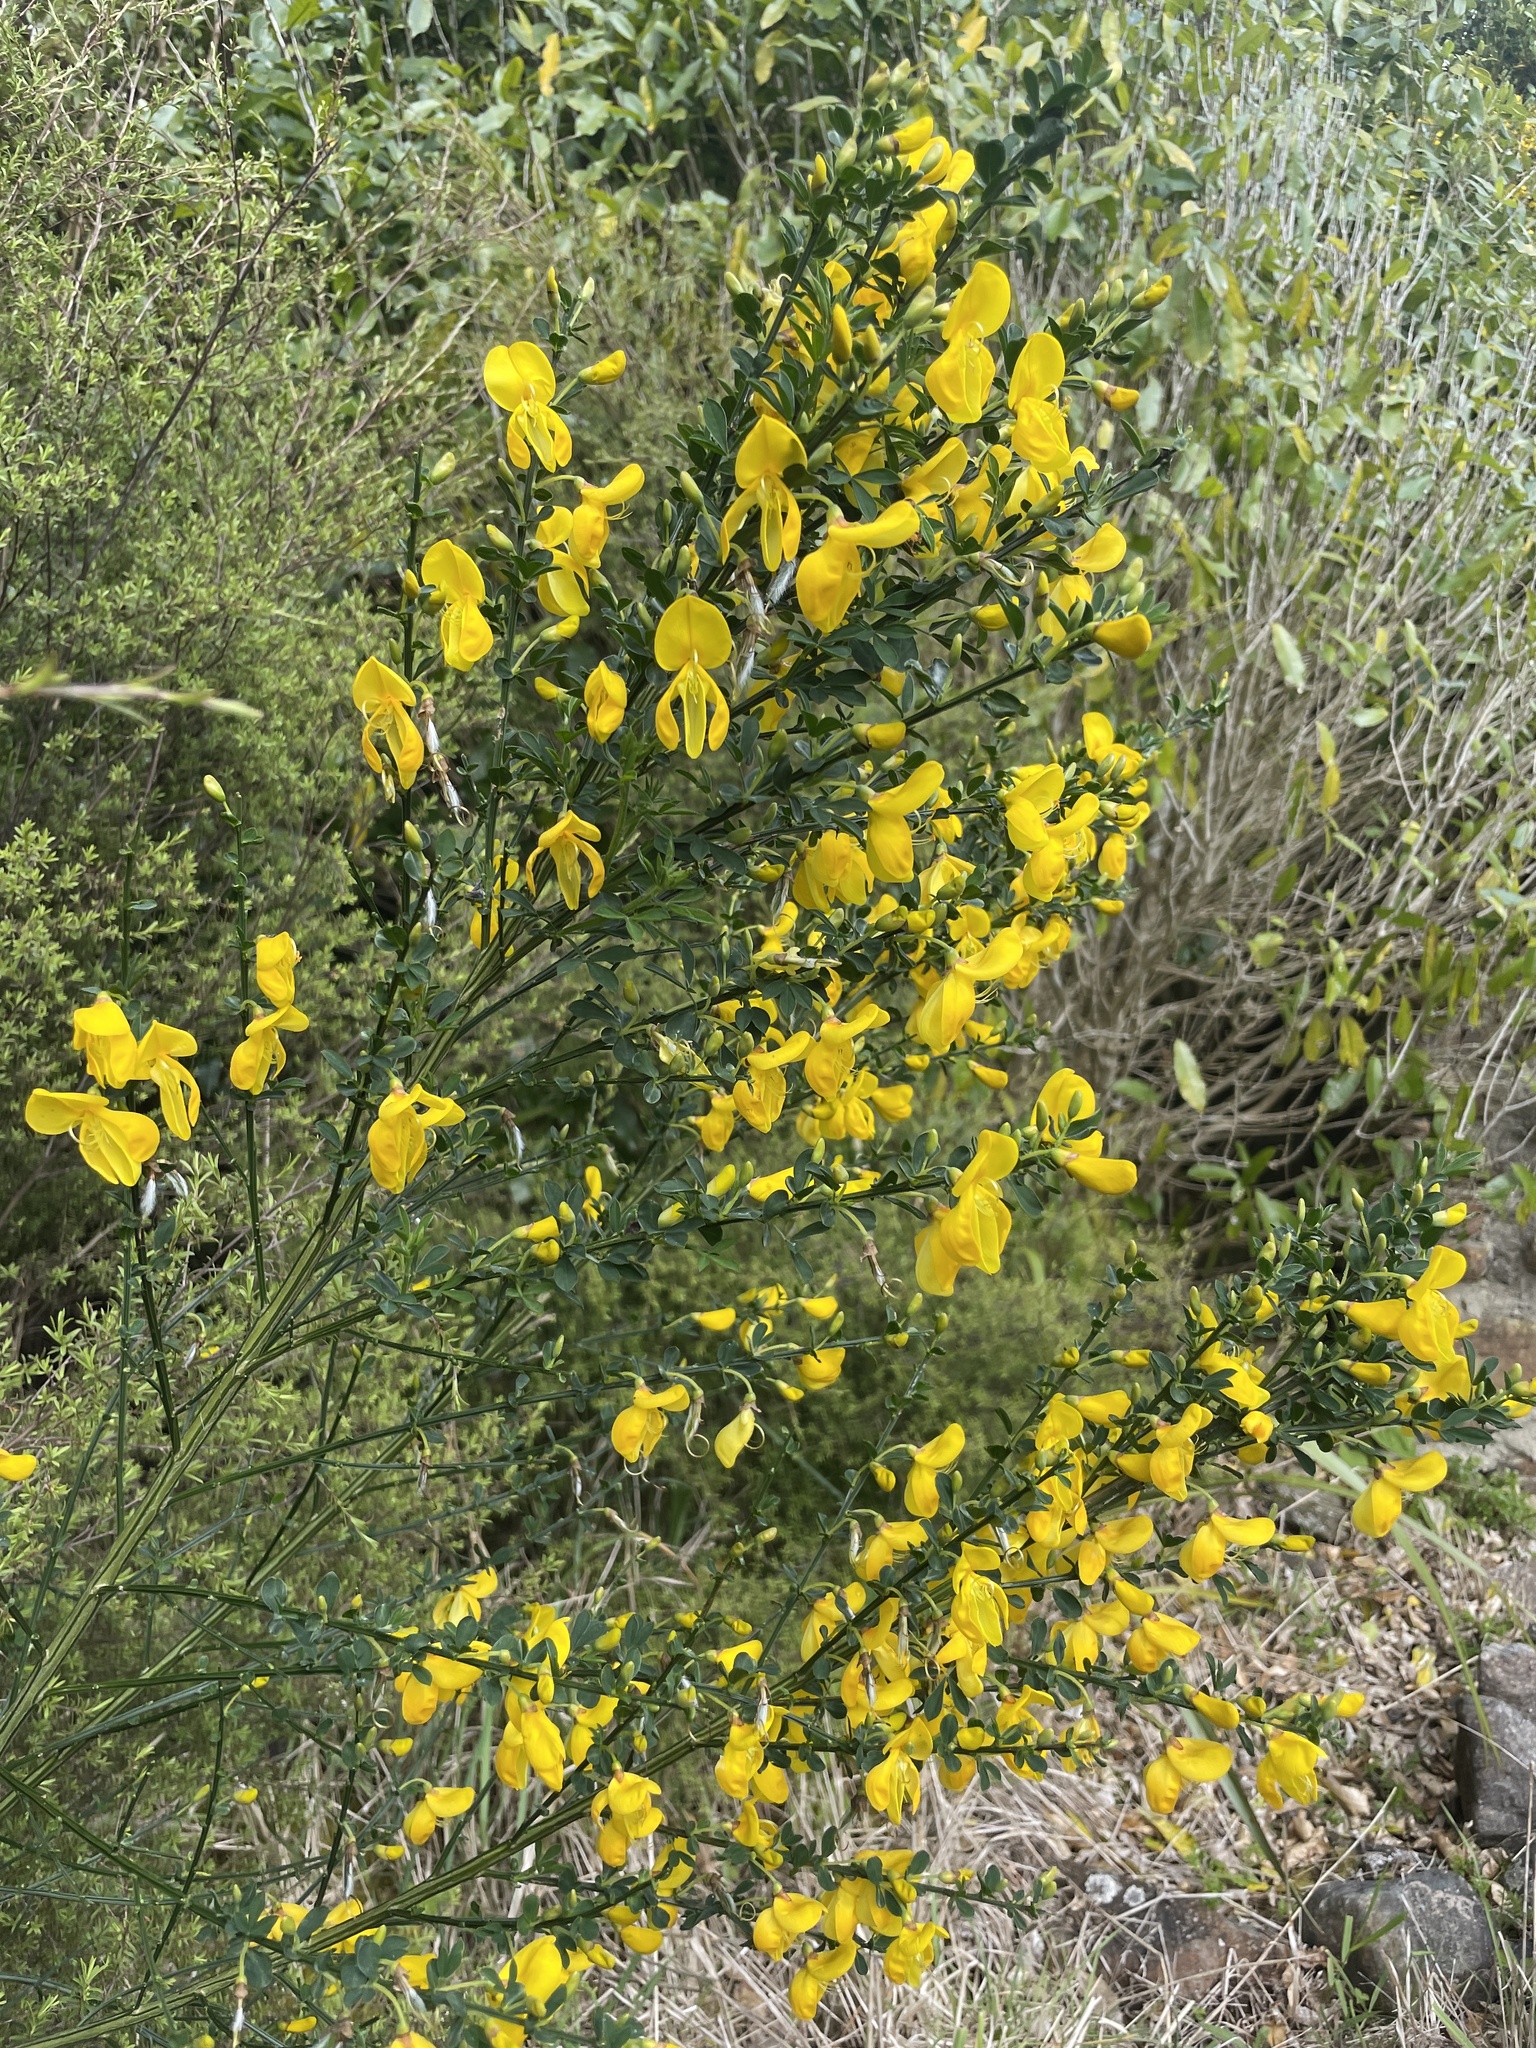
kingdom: Plantae
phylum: Tracheophyta
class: Magnoliopsida
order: Fabales
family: Fabaceae
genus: Cytisus
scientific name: Cytisus scoparius
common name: Scotch broom
